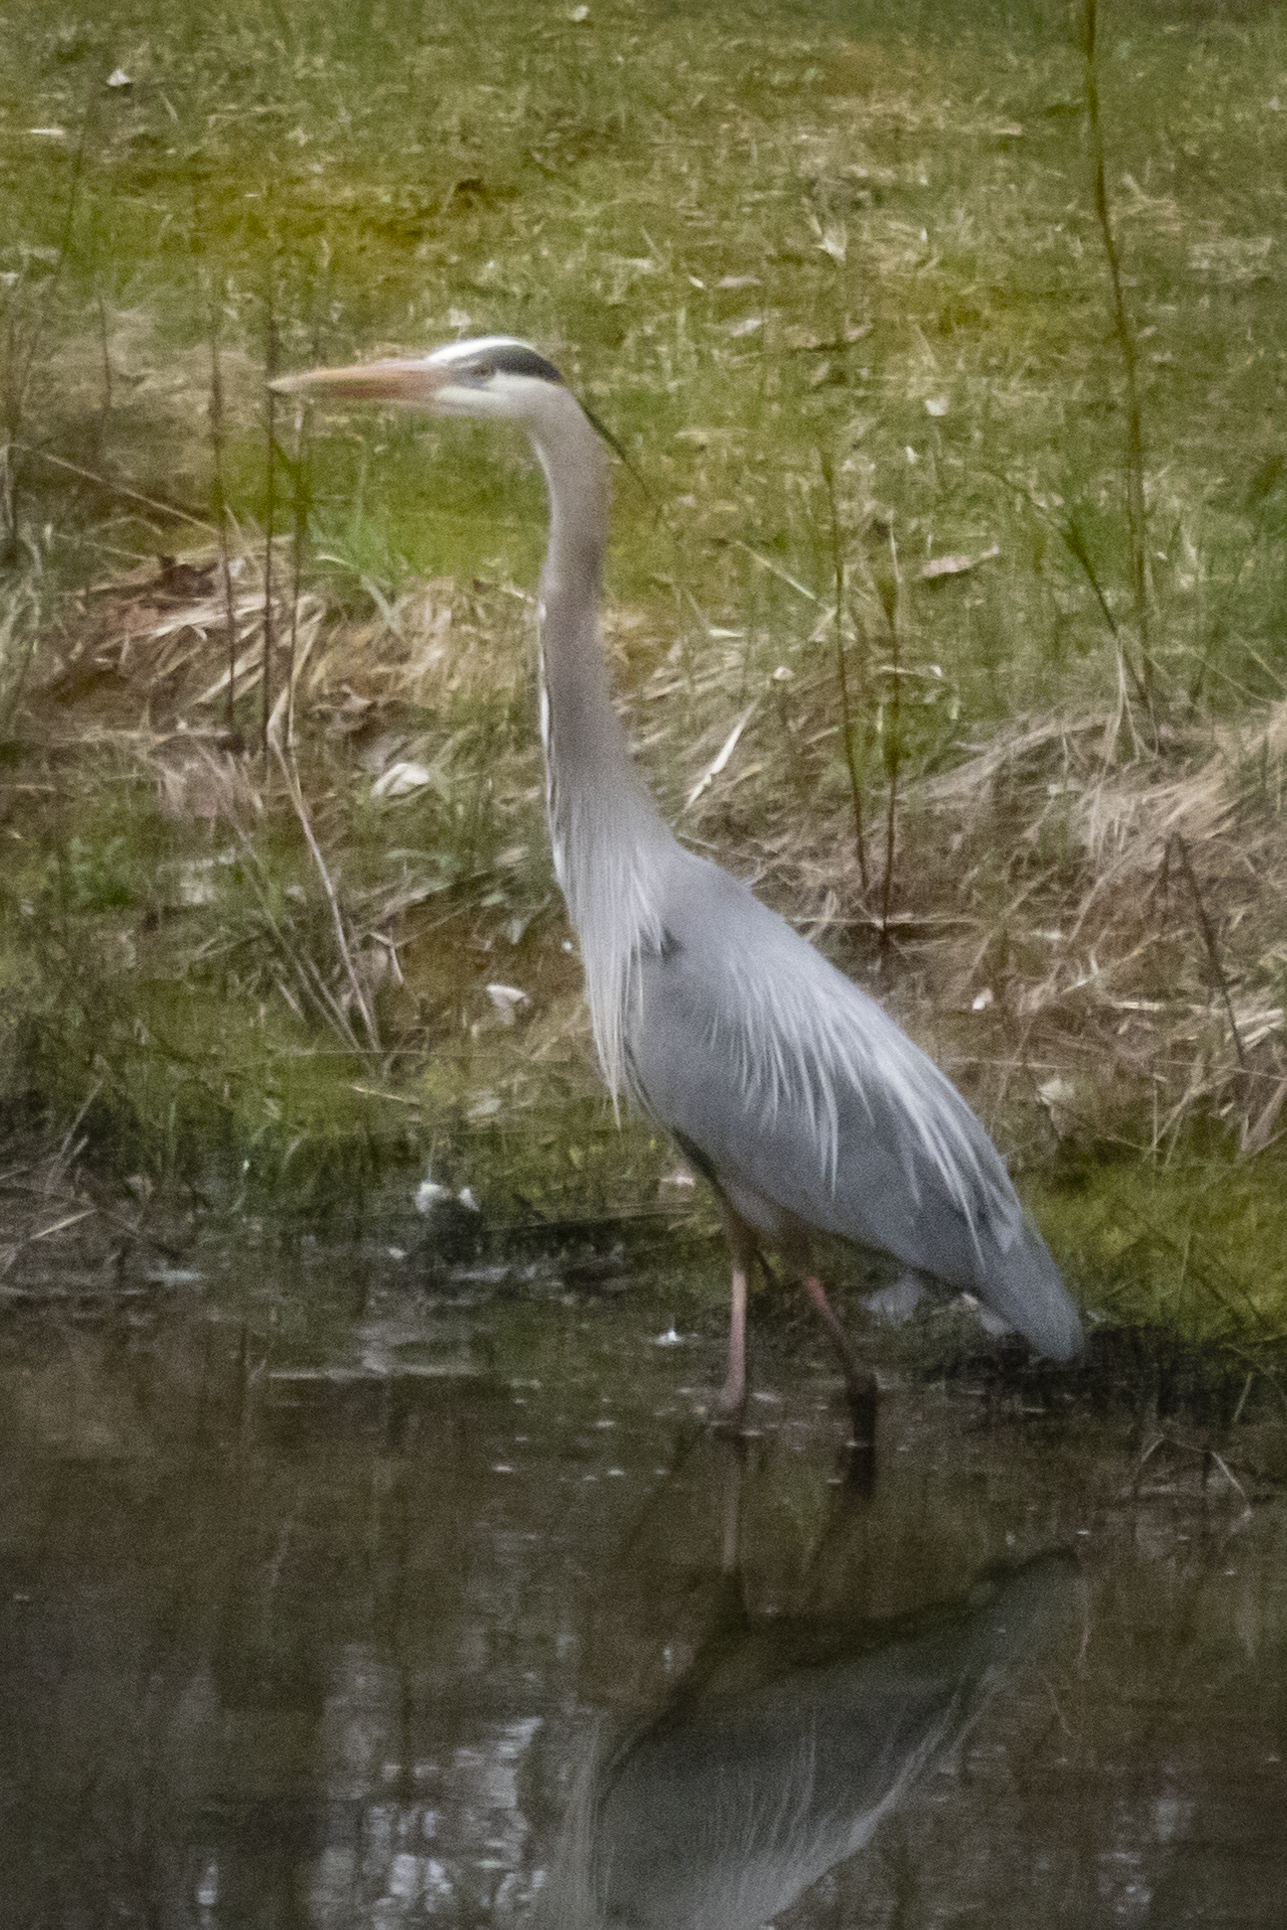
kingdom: Animalia
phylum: Chordata
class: Aves
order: Pelecaniformes
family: Ardeidae
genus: Ardea
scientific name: Ardea herodias
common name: Great blue heron
